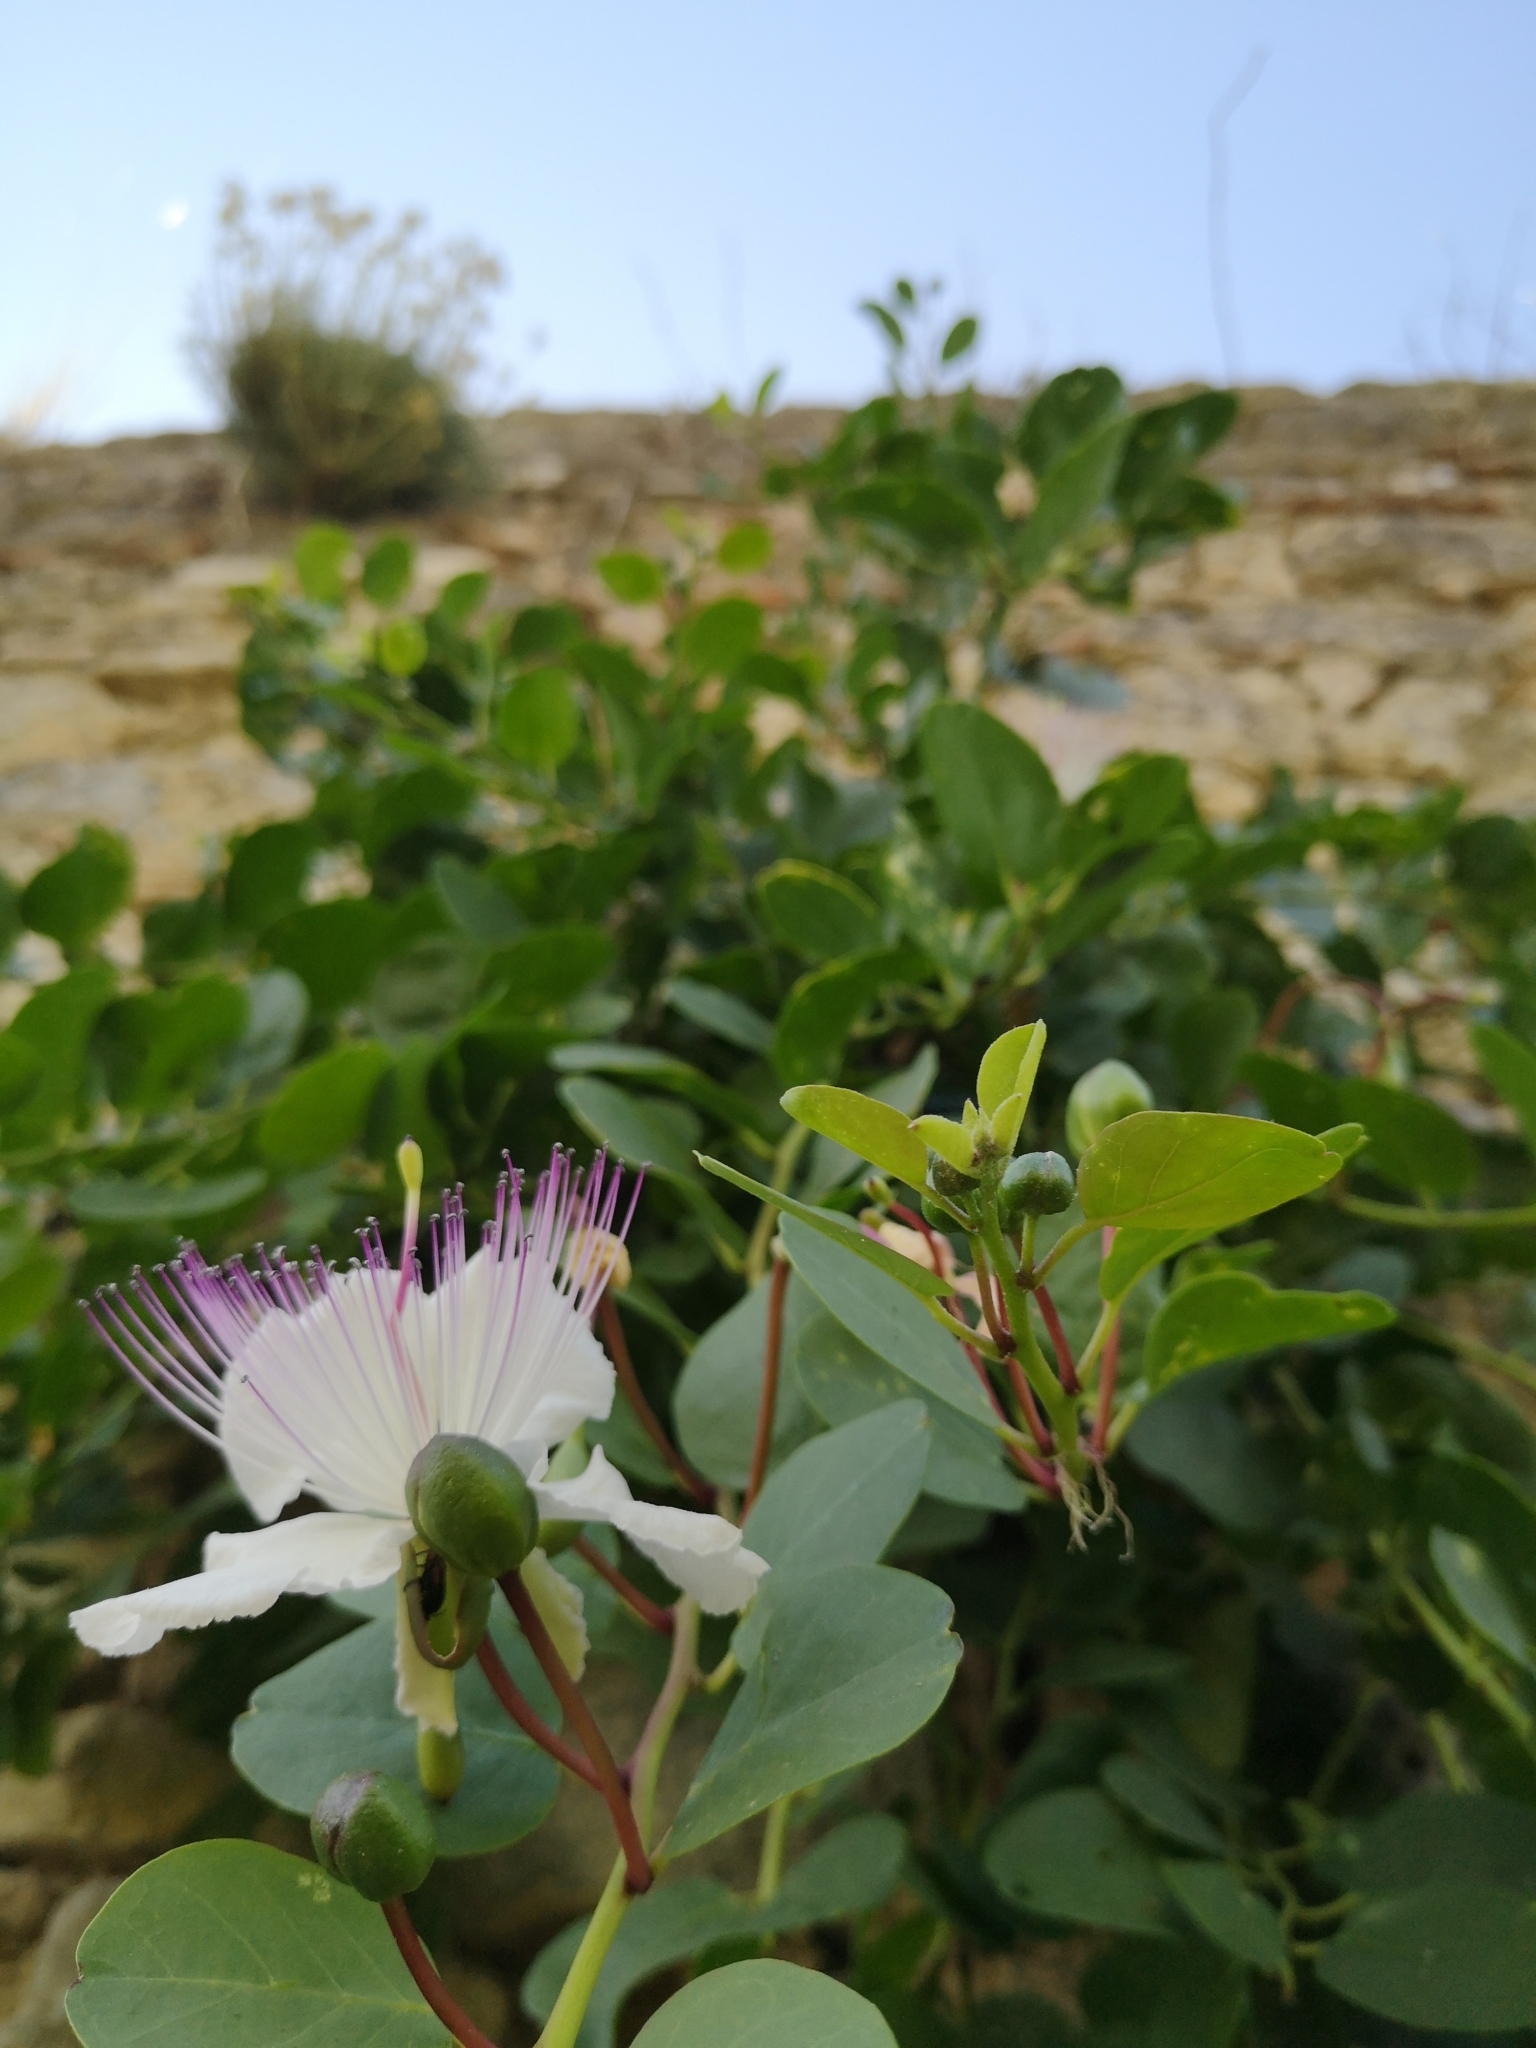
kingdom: Plantae
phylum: Tracheophyta
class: Magnoliopsida
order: Brassicales
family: Capparaceae
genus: Capparis
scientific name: Capparis orientalis
